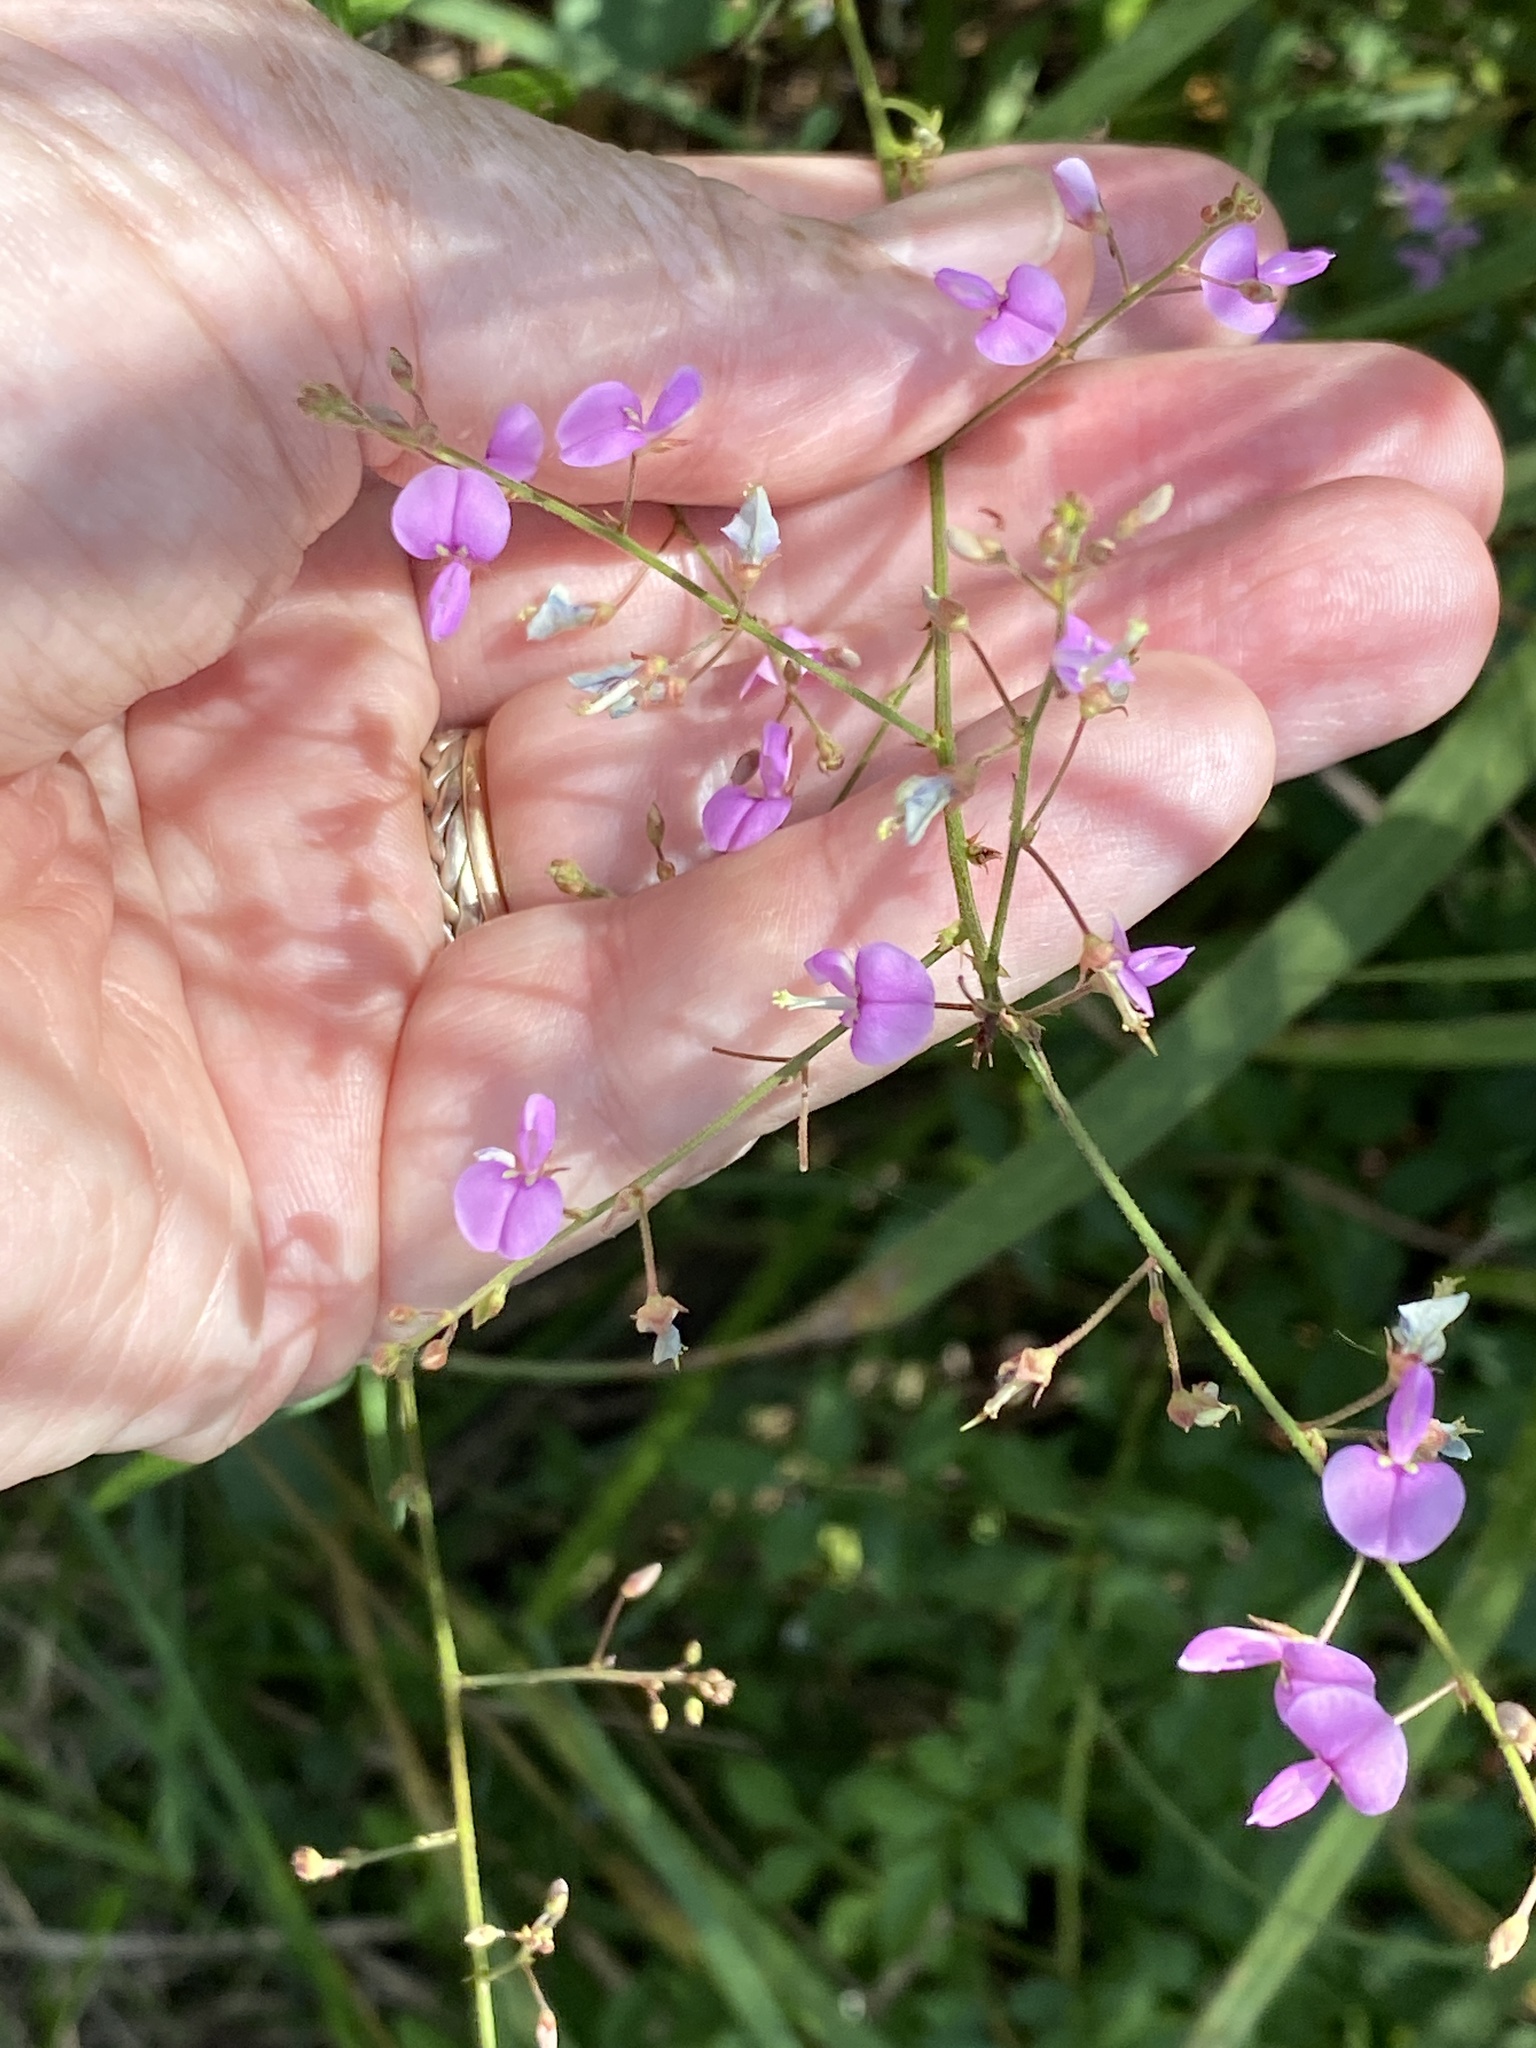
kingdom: Plantae
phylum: Tracheophyta
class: Magnoliopsida
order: Fabales
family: Fabaceae
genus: Desmodium
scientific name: Desmodium paniculatum
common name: Panicled tick-clover
